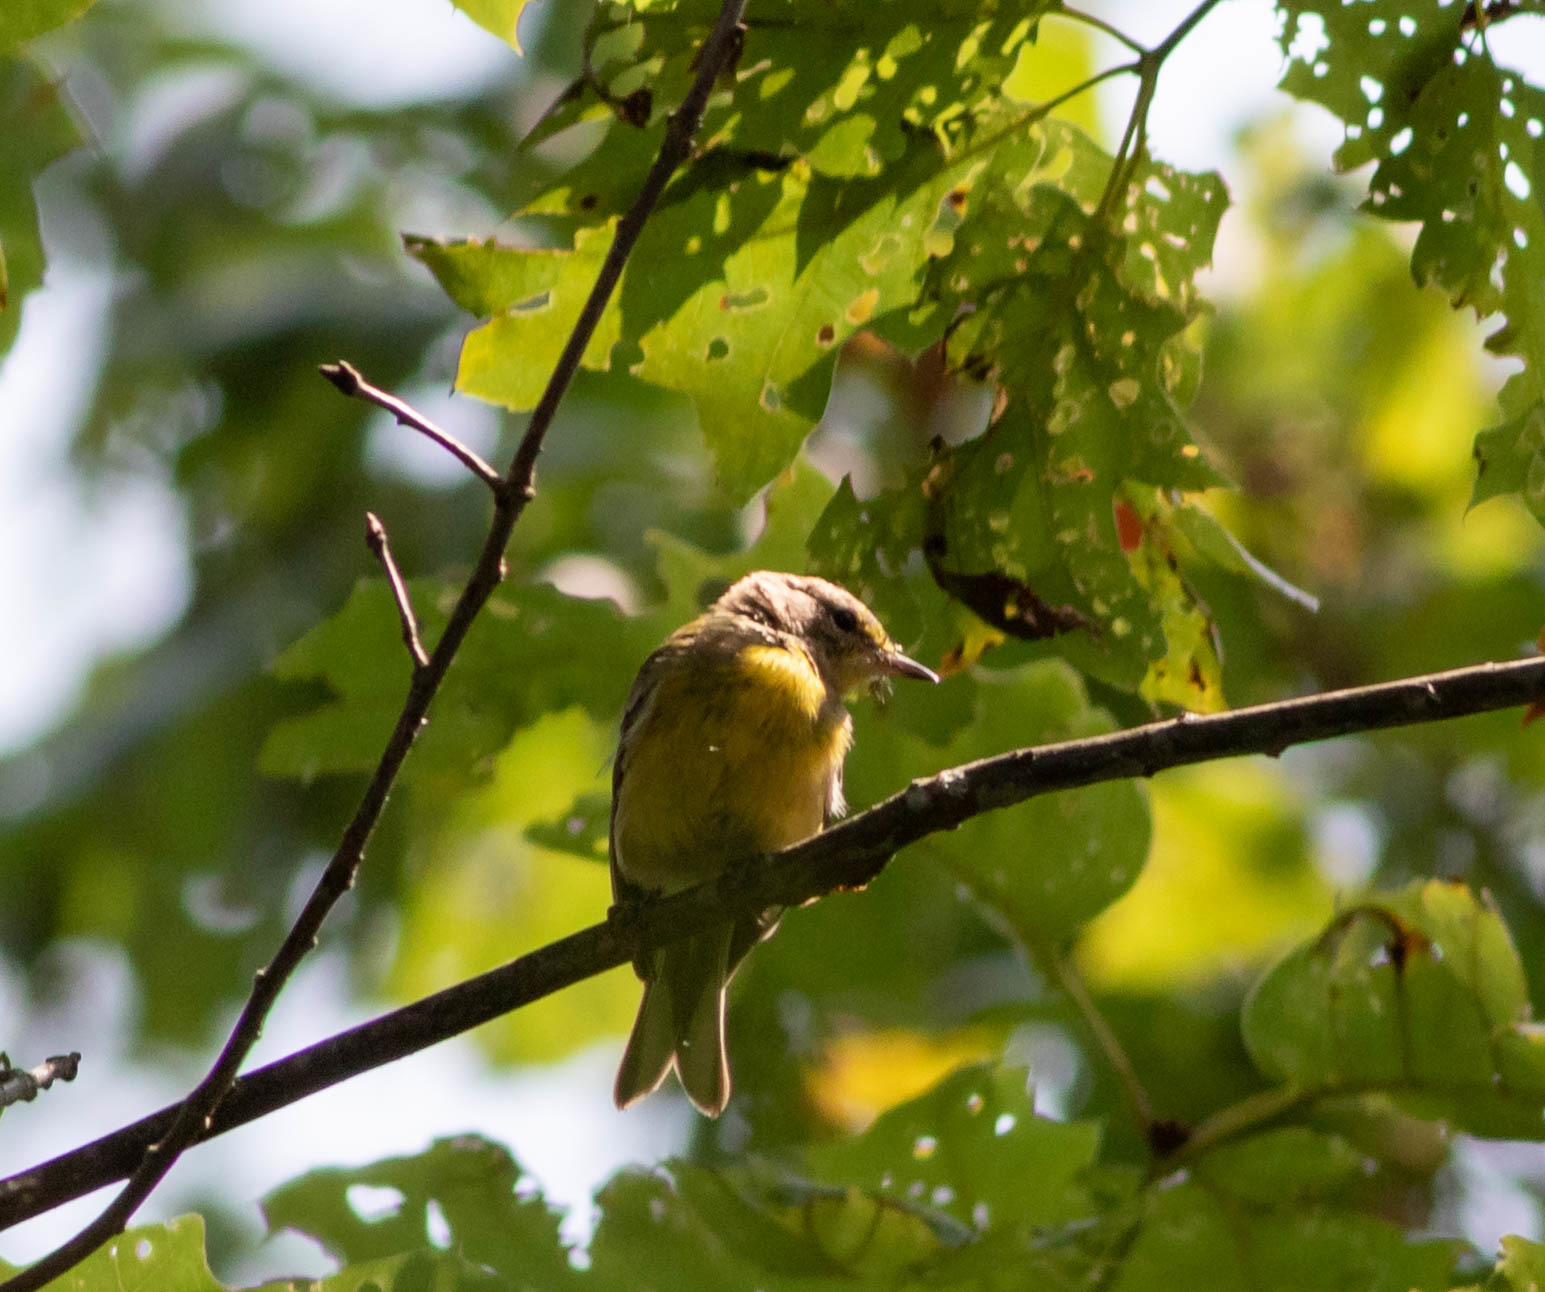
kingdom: Animalia
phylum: Chordata
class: Aves
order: Passeriformes
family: Parulidae
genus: Setophaga
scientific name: Setophaga pinus
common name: Pine warbler
